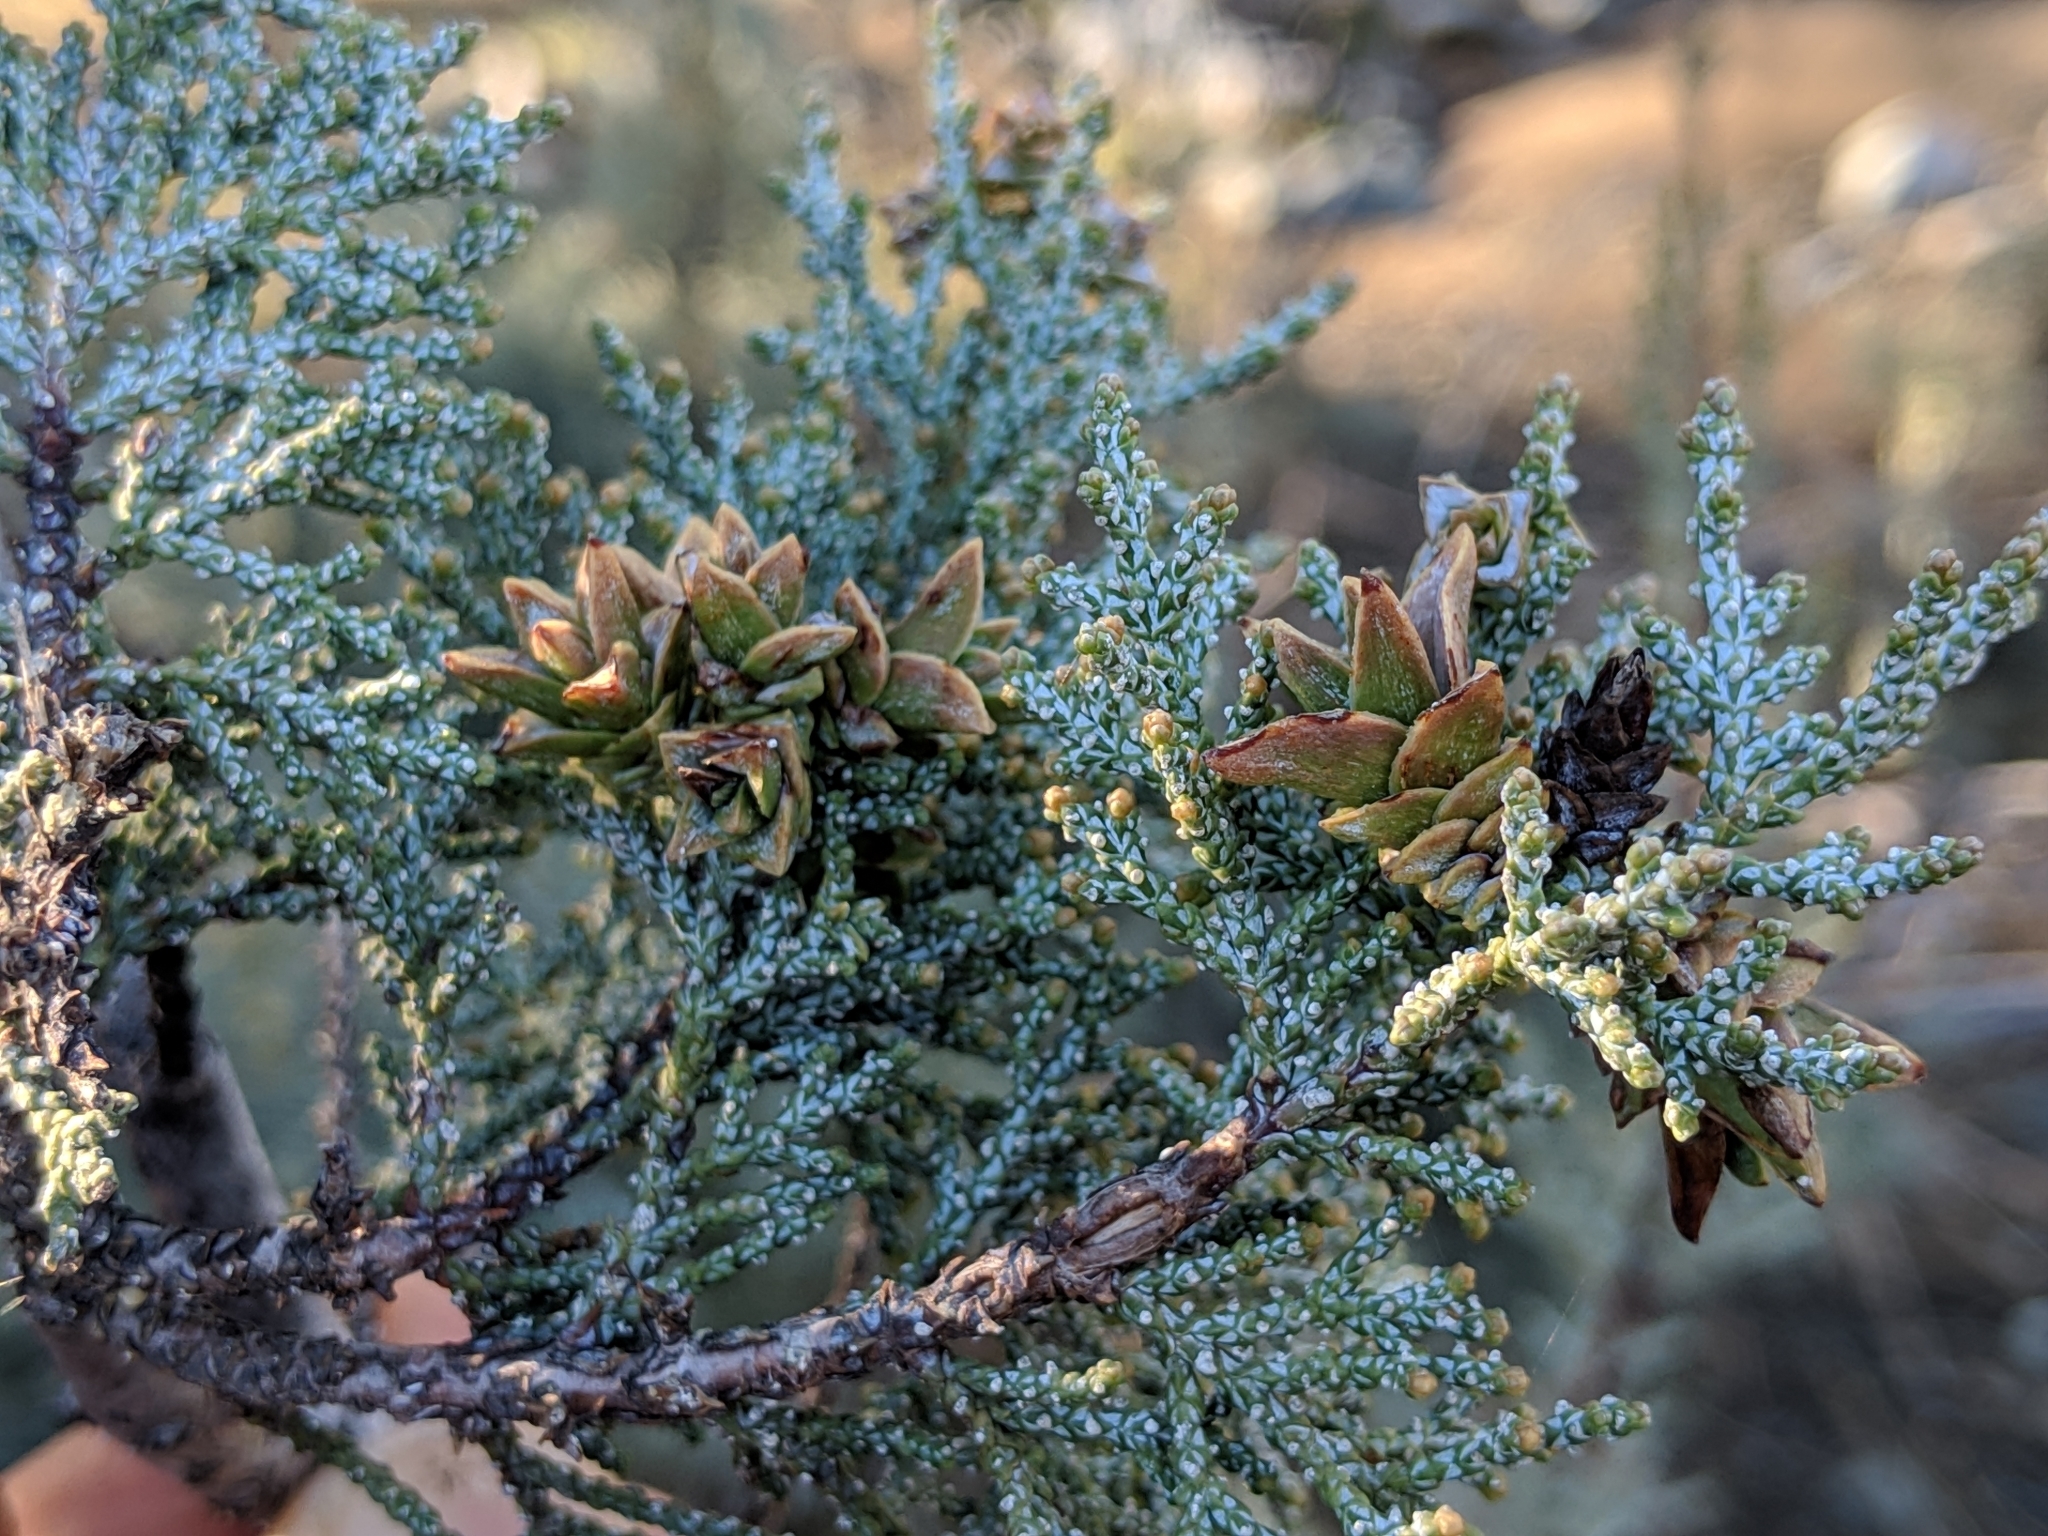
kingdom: Animalia
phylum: Arthropoda
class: Insecta
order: Diptera
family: Cecidomyiidae
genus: Oligotrophus
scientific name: Oligotrophus cupressi
